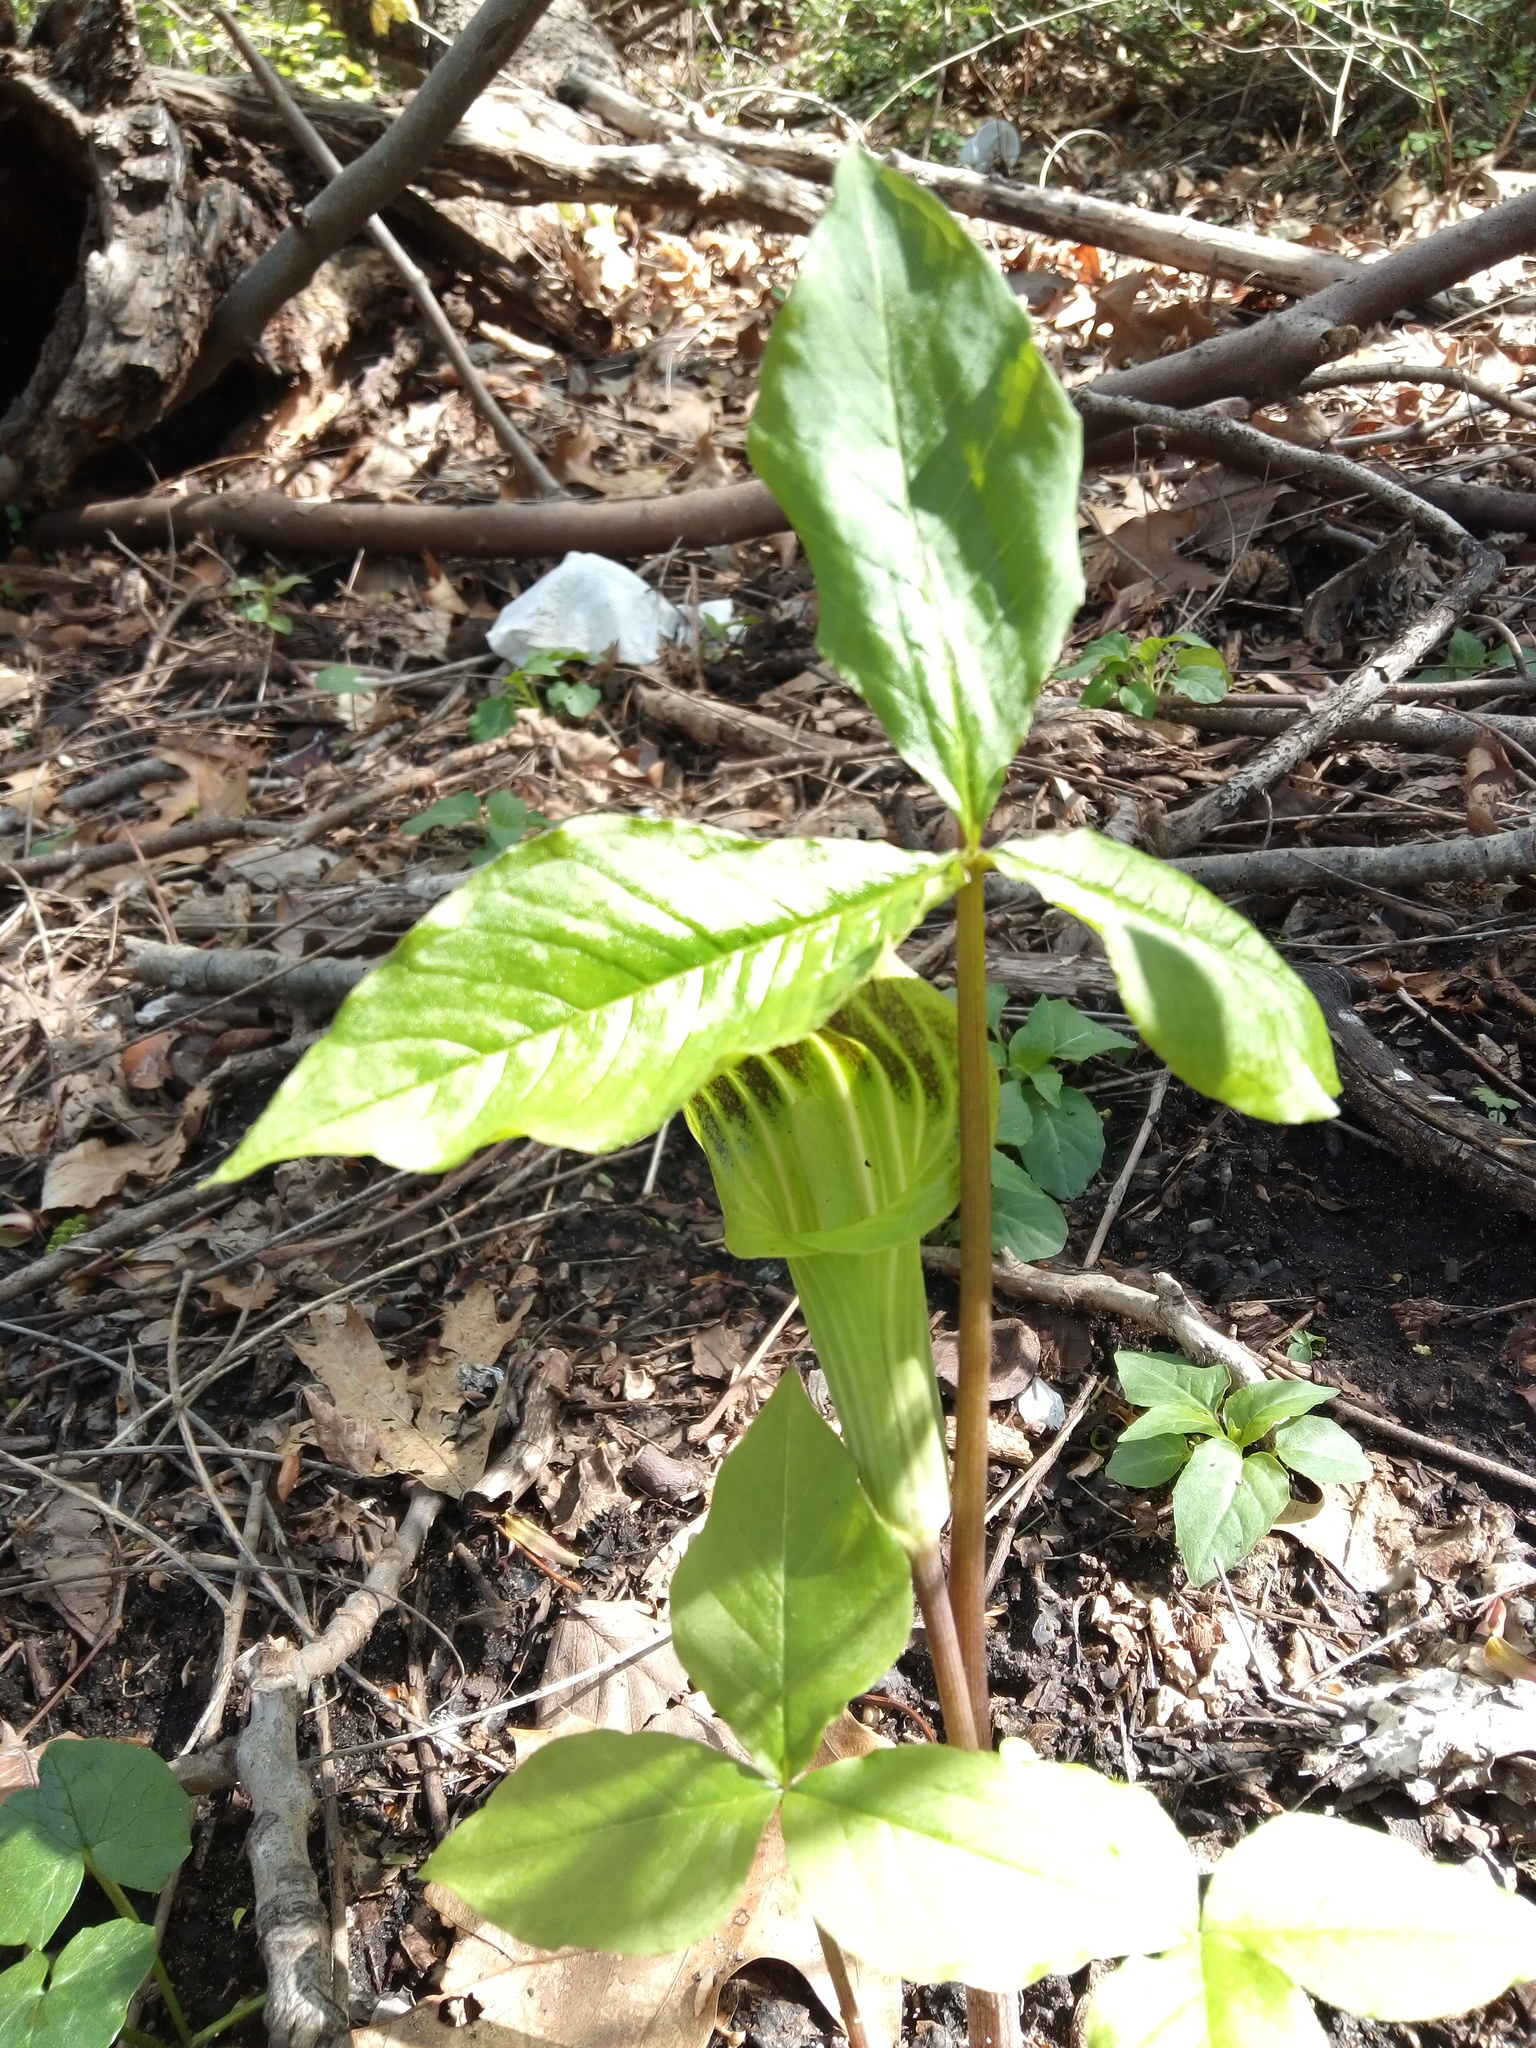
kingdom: Plantae
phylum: Tracheophyta
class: Liliopsida
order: Alismatales
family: Araceae
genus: Arisaema
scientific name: Arisaema triphyllum
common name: Jack-in-the-pulpit
